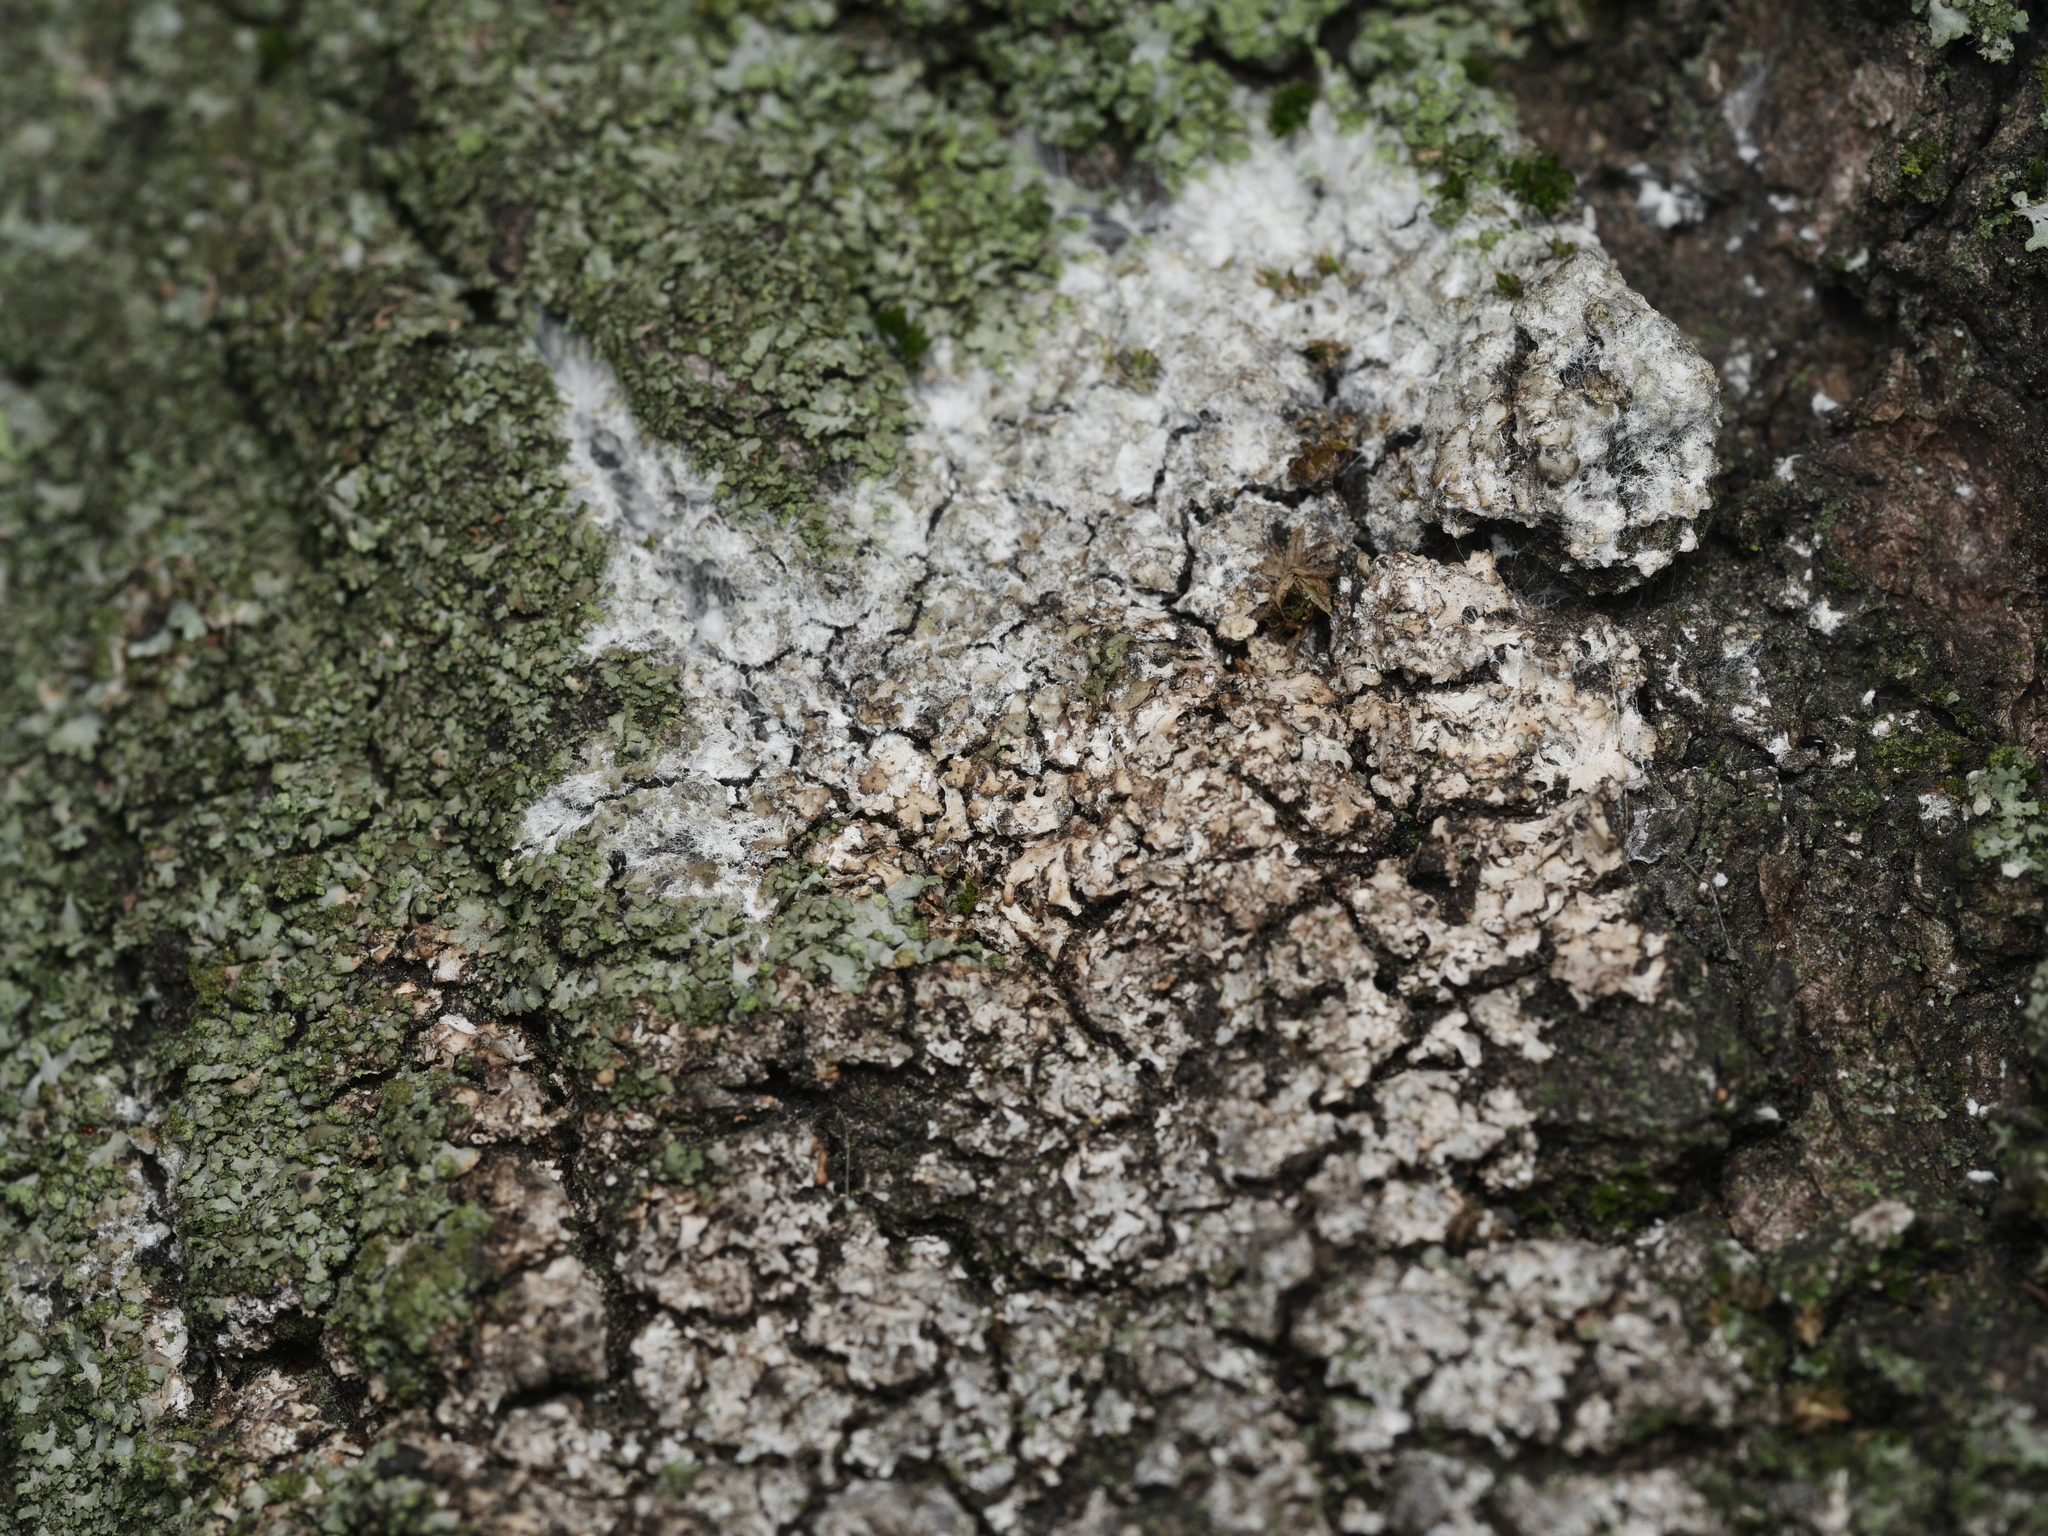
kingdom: Fungi
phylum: Basidiomycota
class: Agaricomycetes
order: Atheliales
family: Atheliaceae
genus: Athelia
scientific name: Athelia arachnoidea
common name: Candelabra duster
